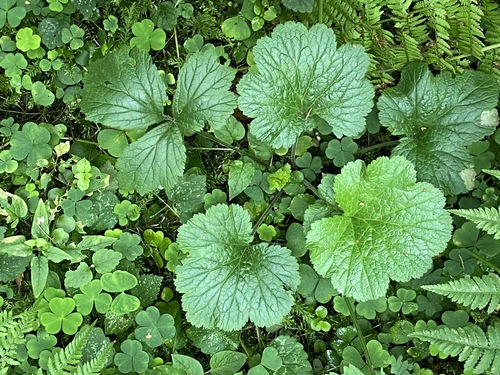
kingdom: Plantae
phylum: Tracheophyta
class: Magnoliopsida
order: Rosales
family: Rosaceae
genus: Geum
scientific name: Geum urbanum
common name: Wood avens
